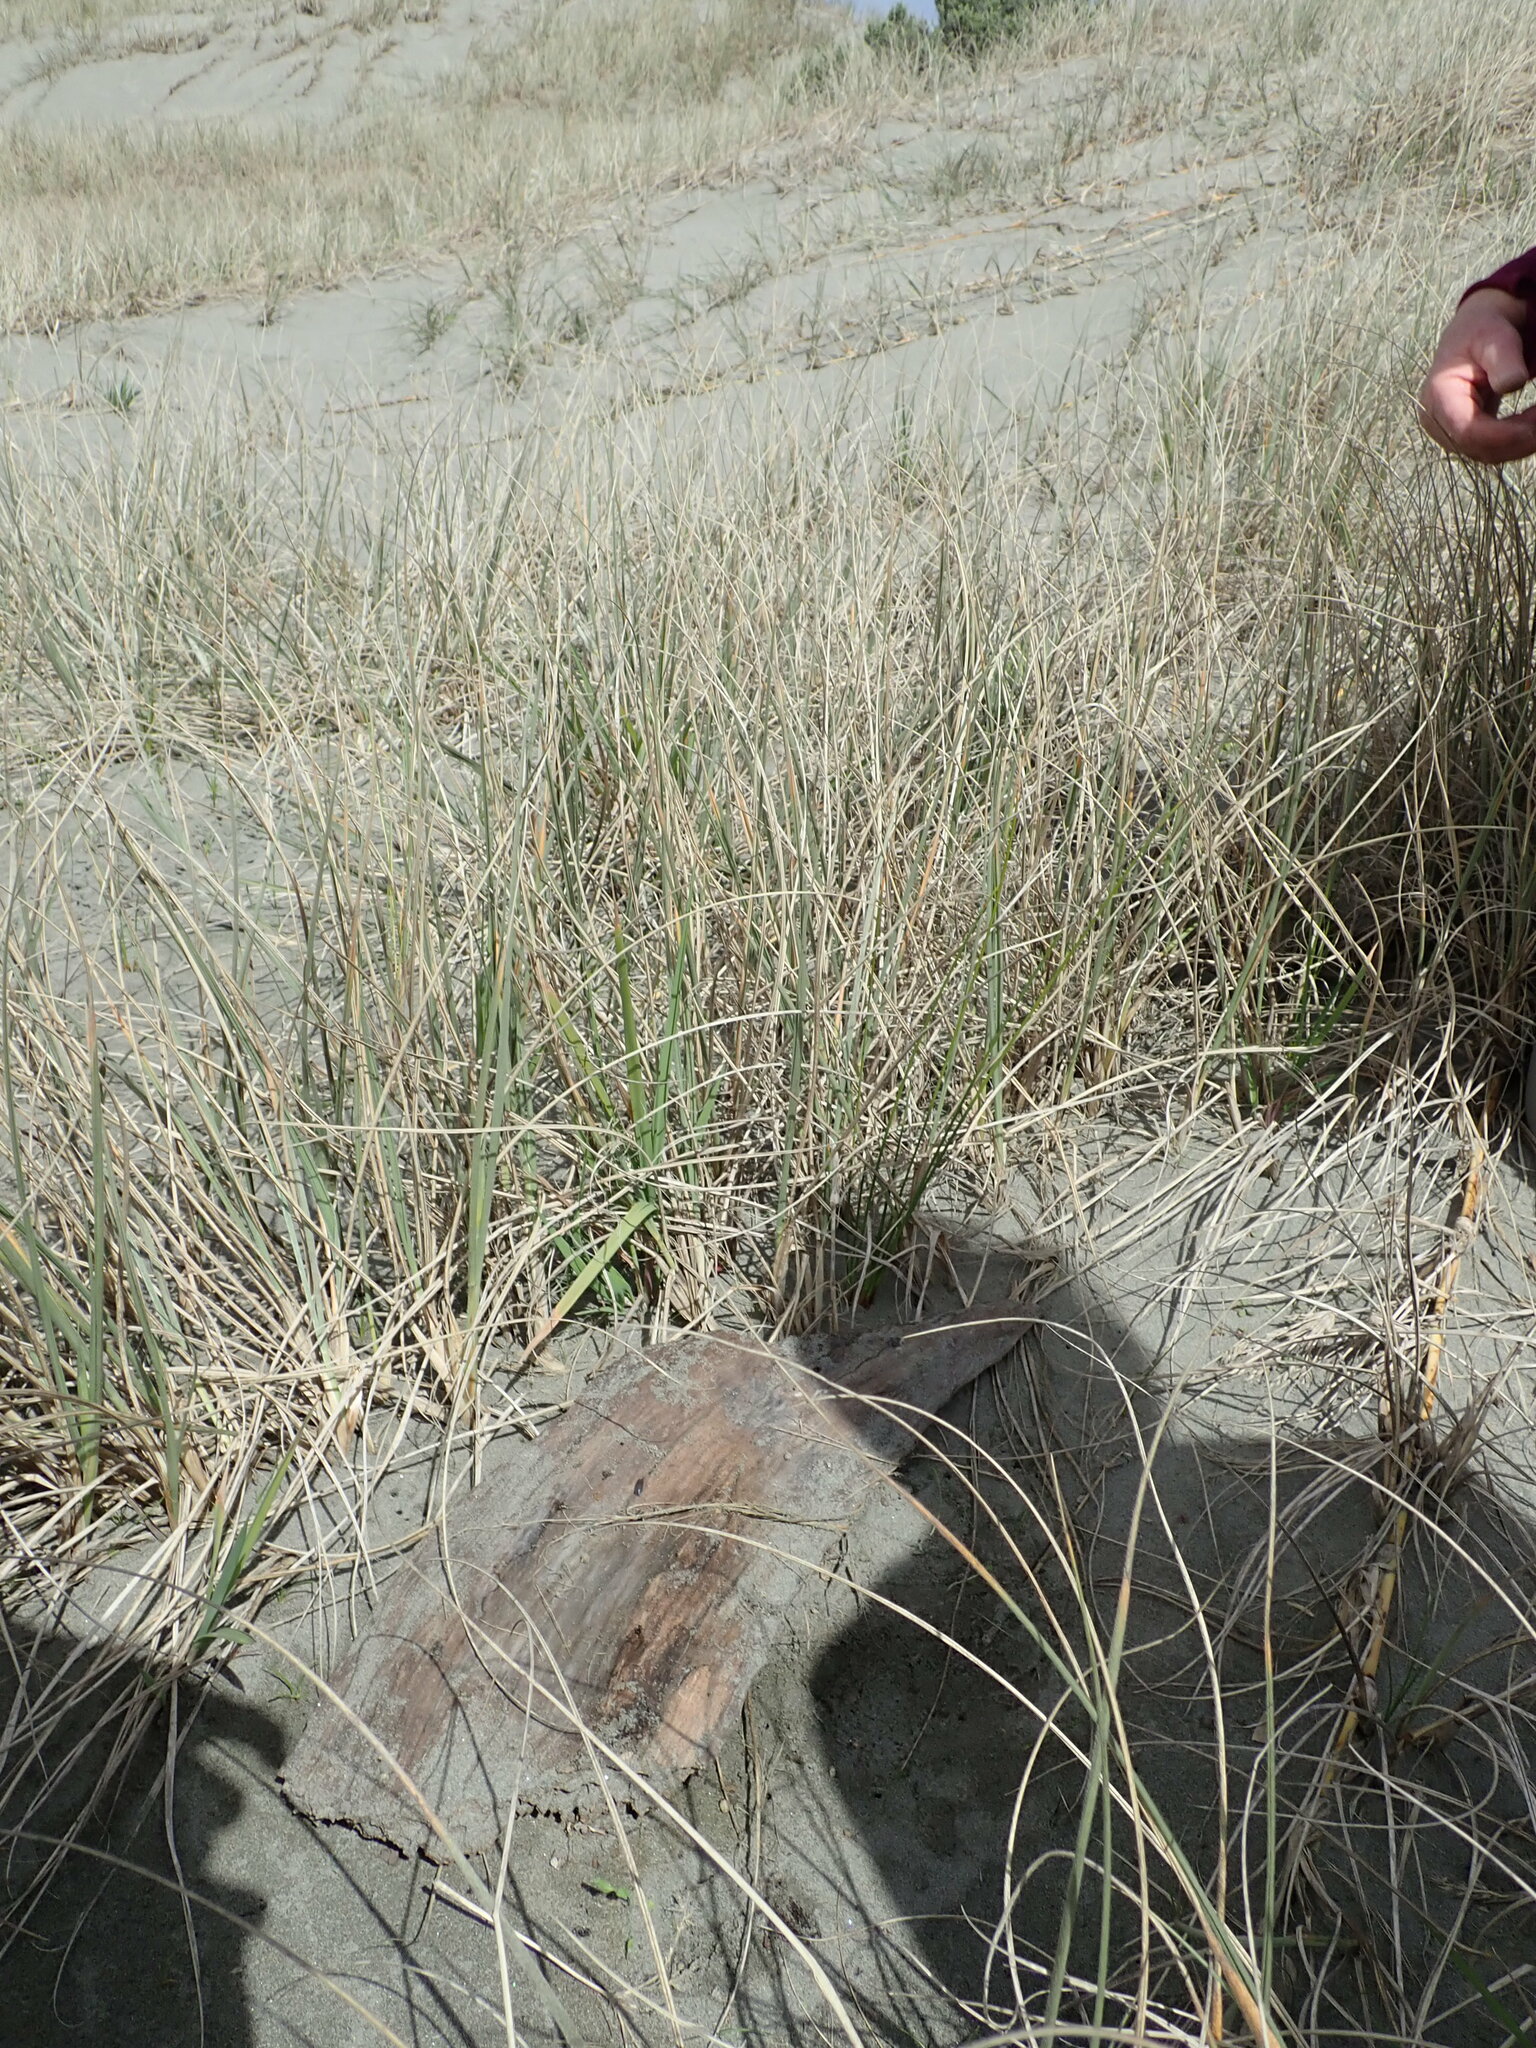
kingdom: Animalia
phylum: Arthropoda
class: Arachnida
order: Araneae
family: Theridiidae
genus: Latrodectus
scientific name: Latrodectus katipo
